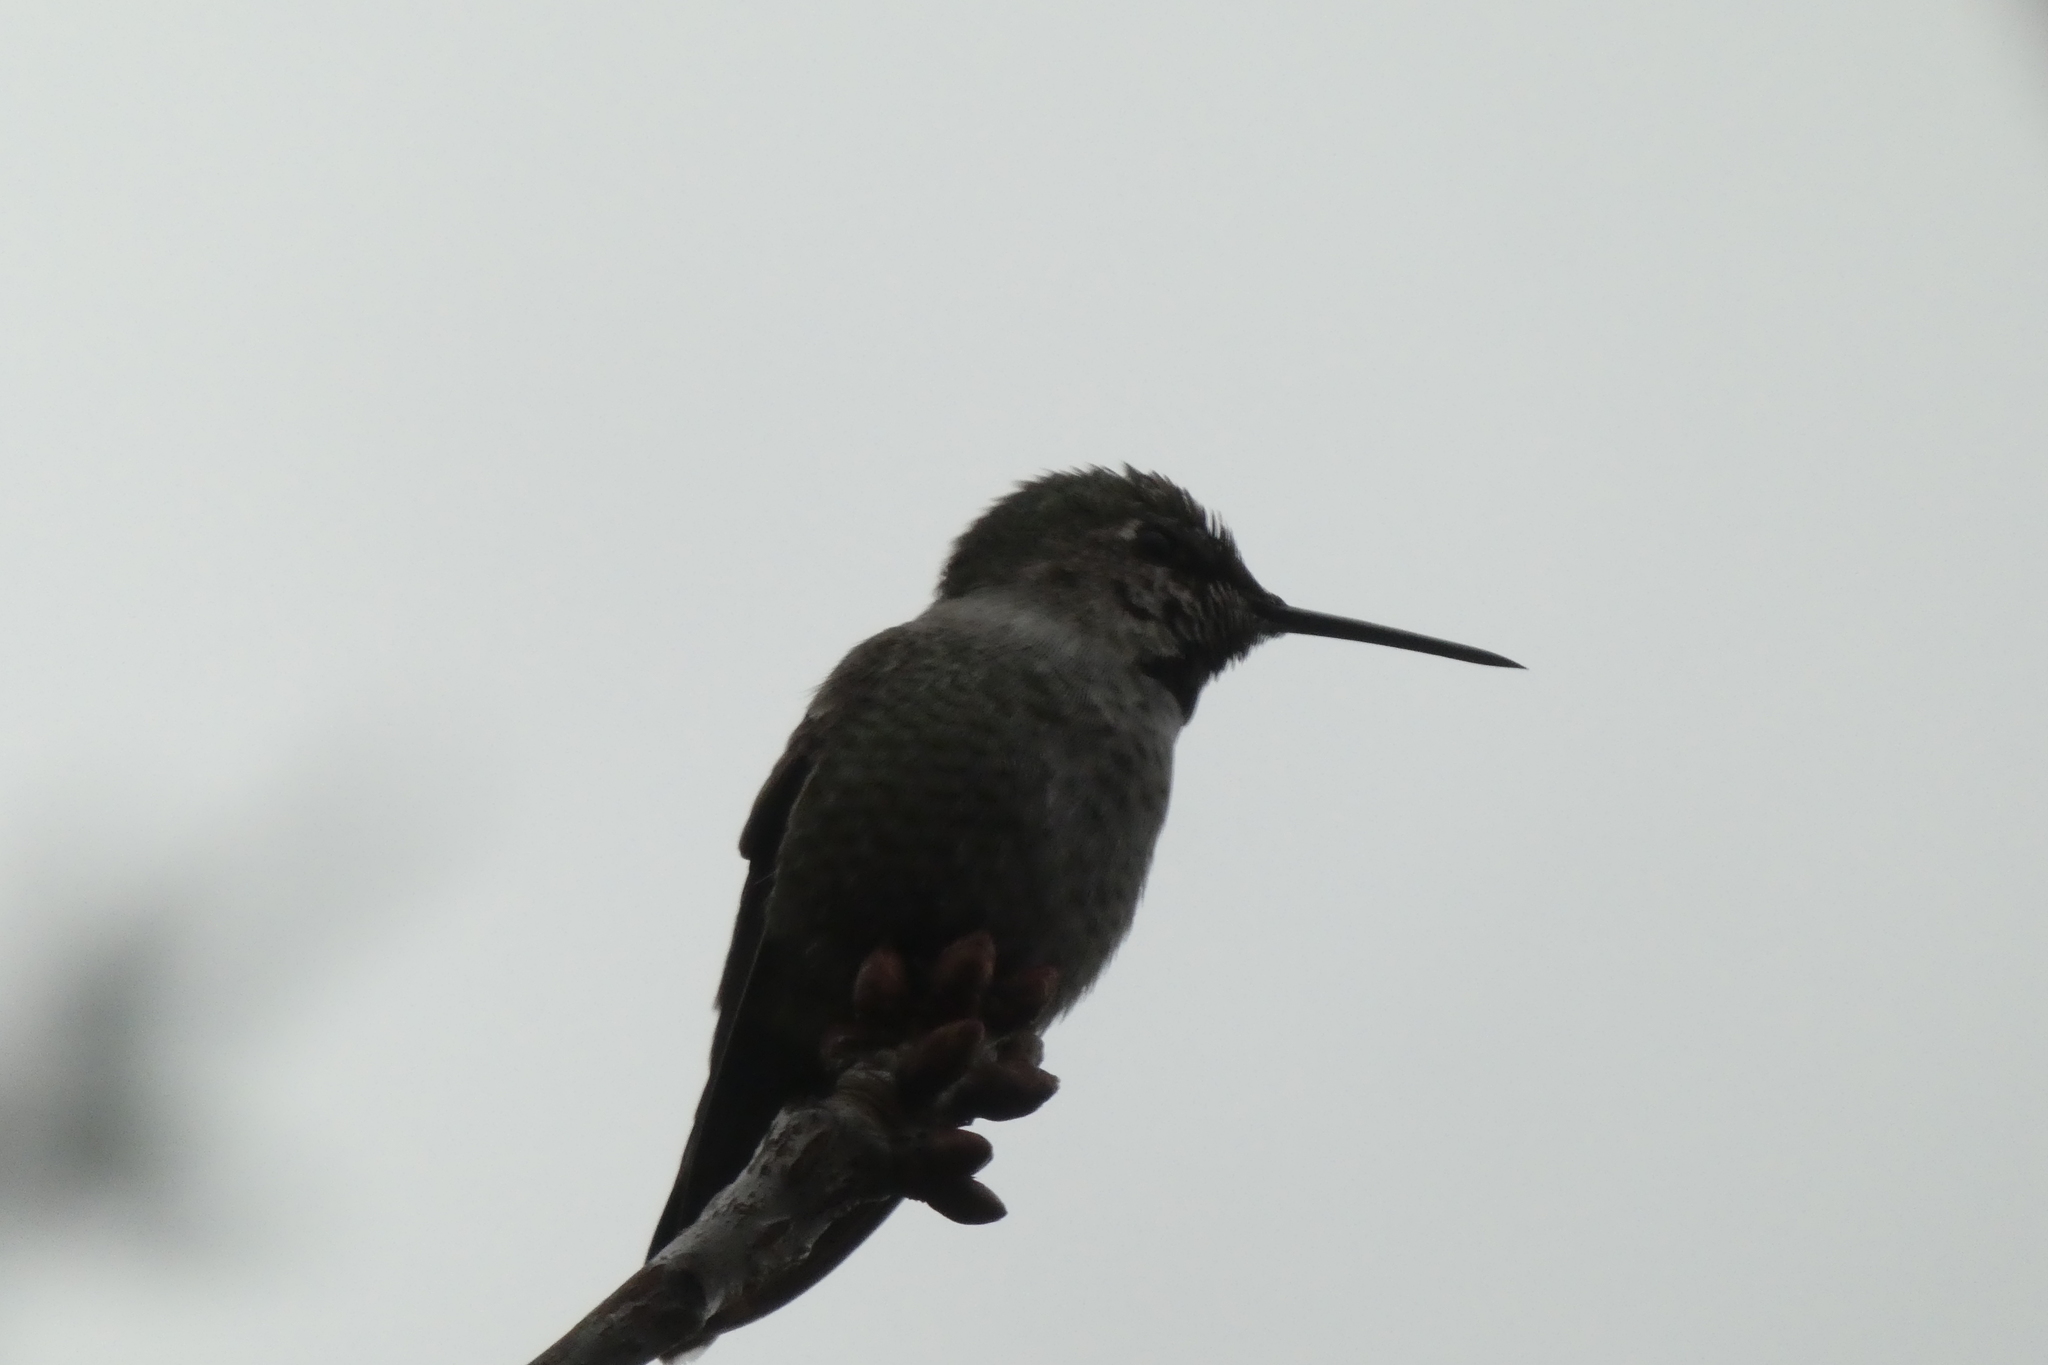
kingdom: Animalia
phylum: Chordata
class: Aves
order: Apodiformes
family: Trochilidae
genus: Calypte
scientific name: Calypte anna
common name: Anna's hummingbird
